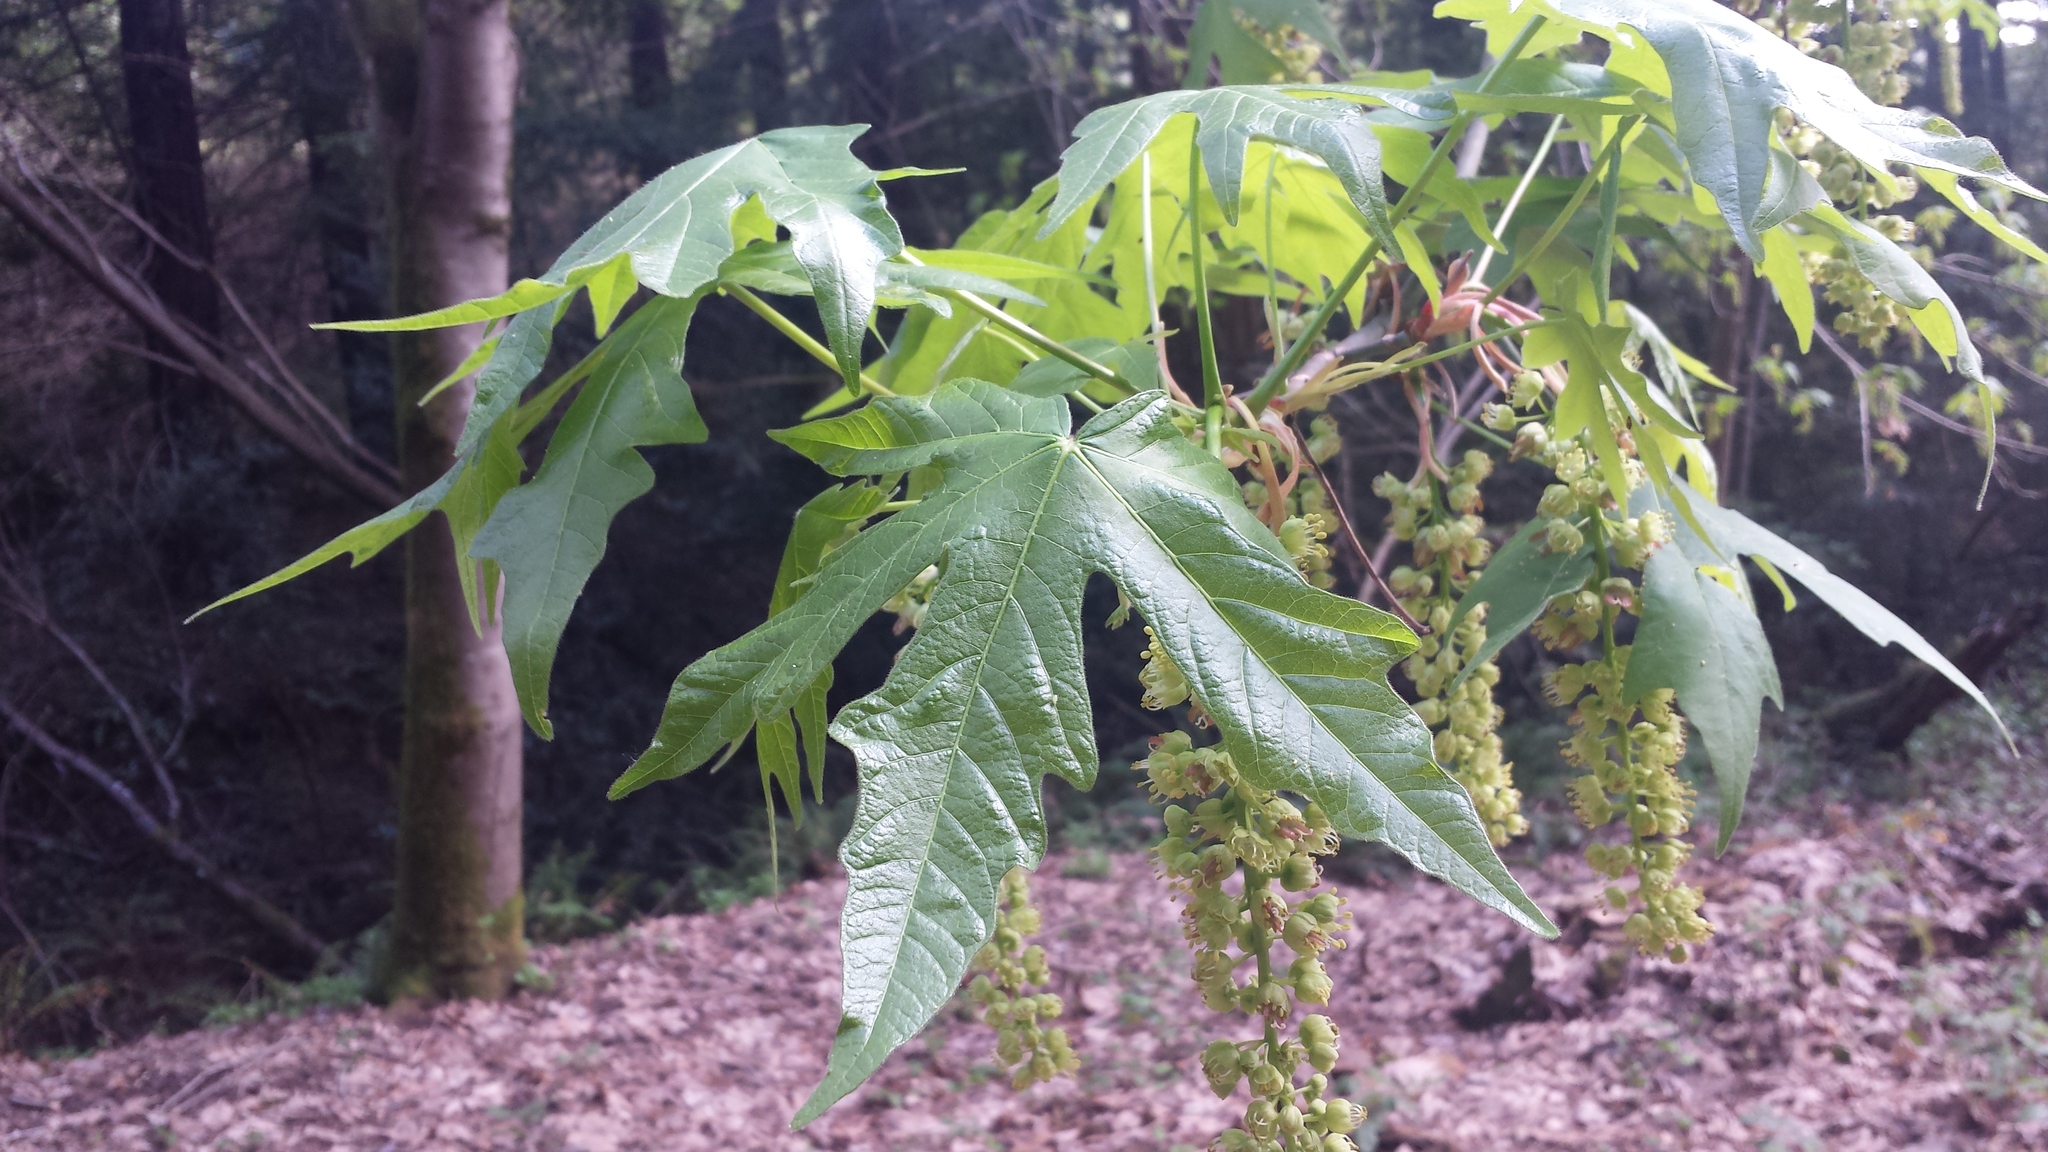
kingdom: Plantae
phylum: Tracheophyta
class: Magnoliopsida
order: Sapindales
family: Sapindaceae
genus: Acer
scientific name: Acer macrophyllum
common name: Oregon maple
